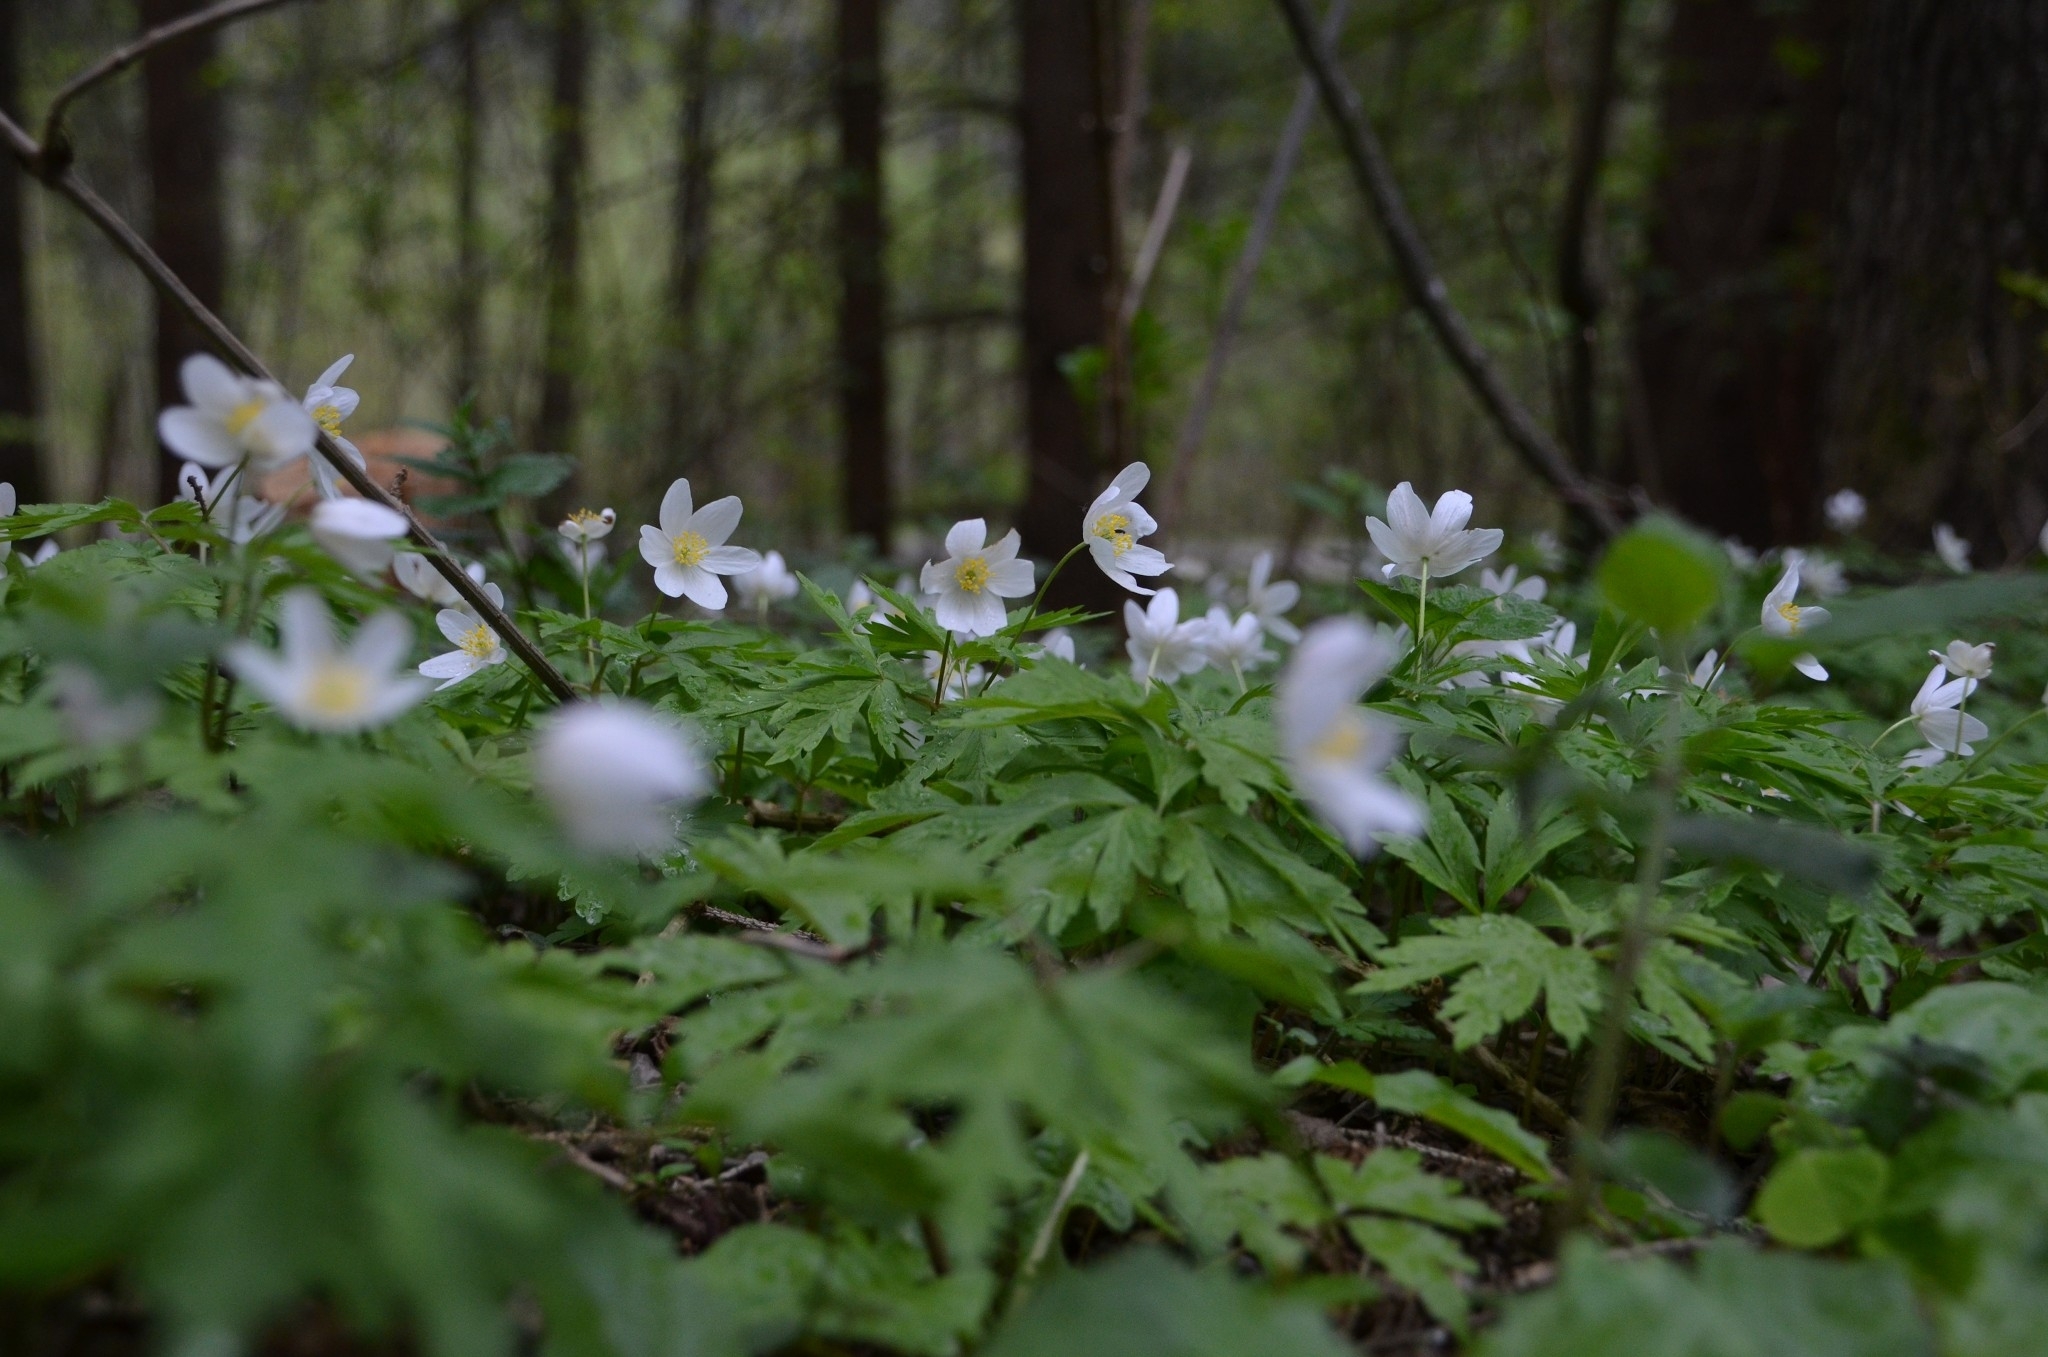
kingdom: Plantae
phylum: Tracheophyta
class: Magnoliopsida
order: Ranunculales
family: Ranunculaceae
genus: Anemone
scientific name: Anemone nemorosa
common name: Wood anemone
